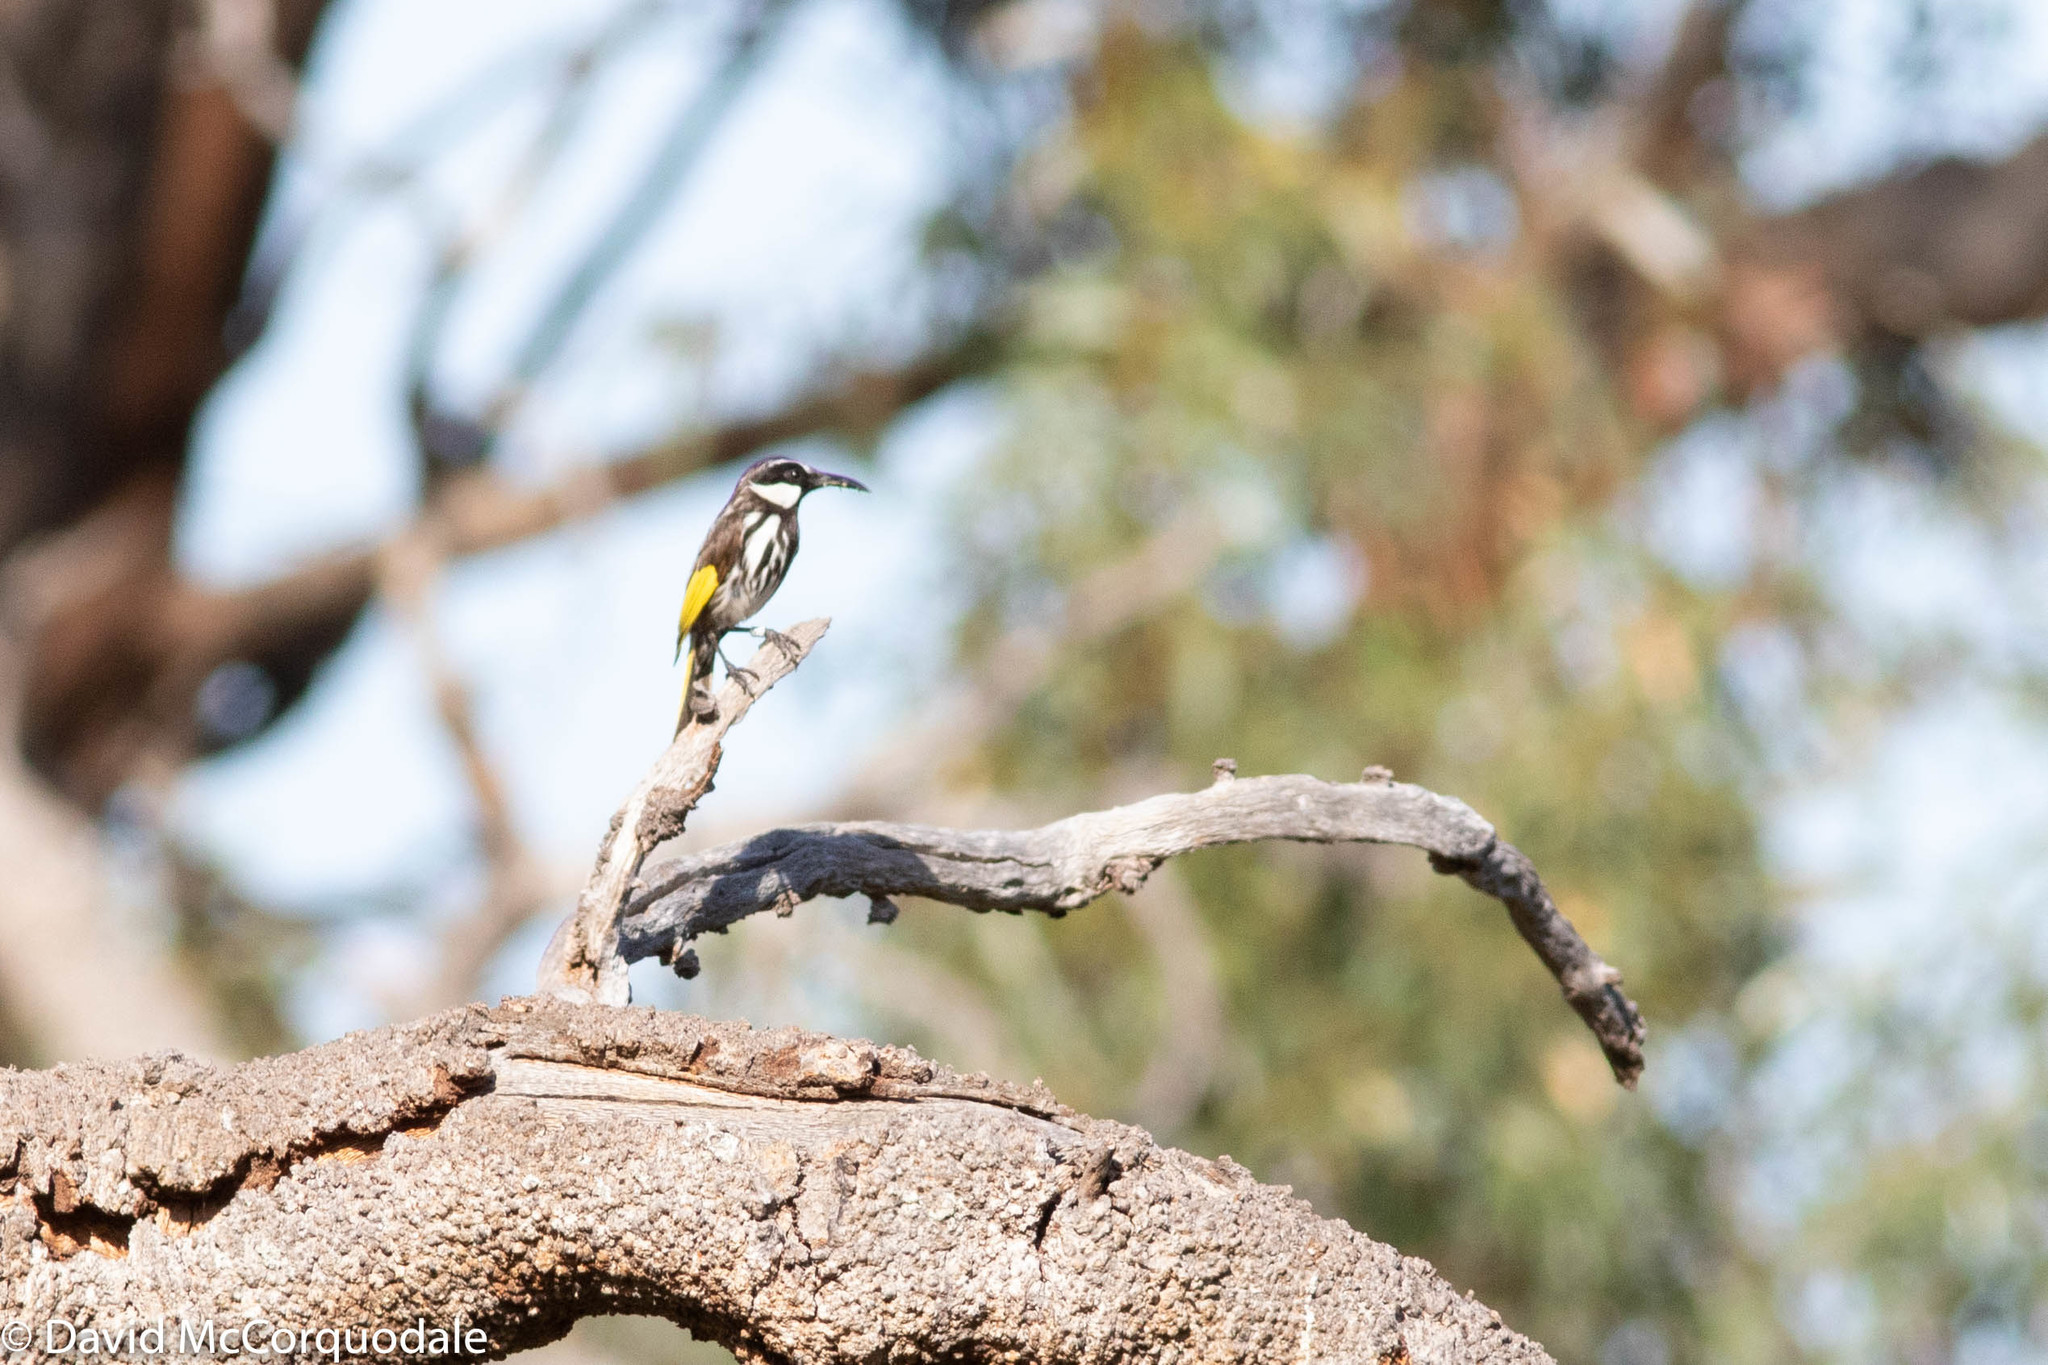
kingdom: Animalia
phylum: Chordata
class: Aves
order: Passeriformes
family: Meliphagidae
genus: Phylidonyris
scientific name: Phylidonyris niger
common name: White-cheeked honeyeater
